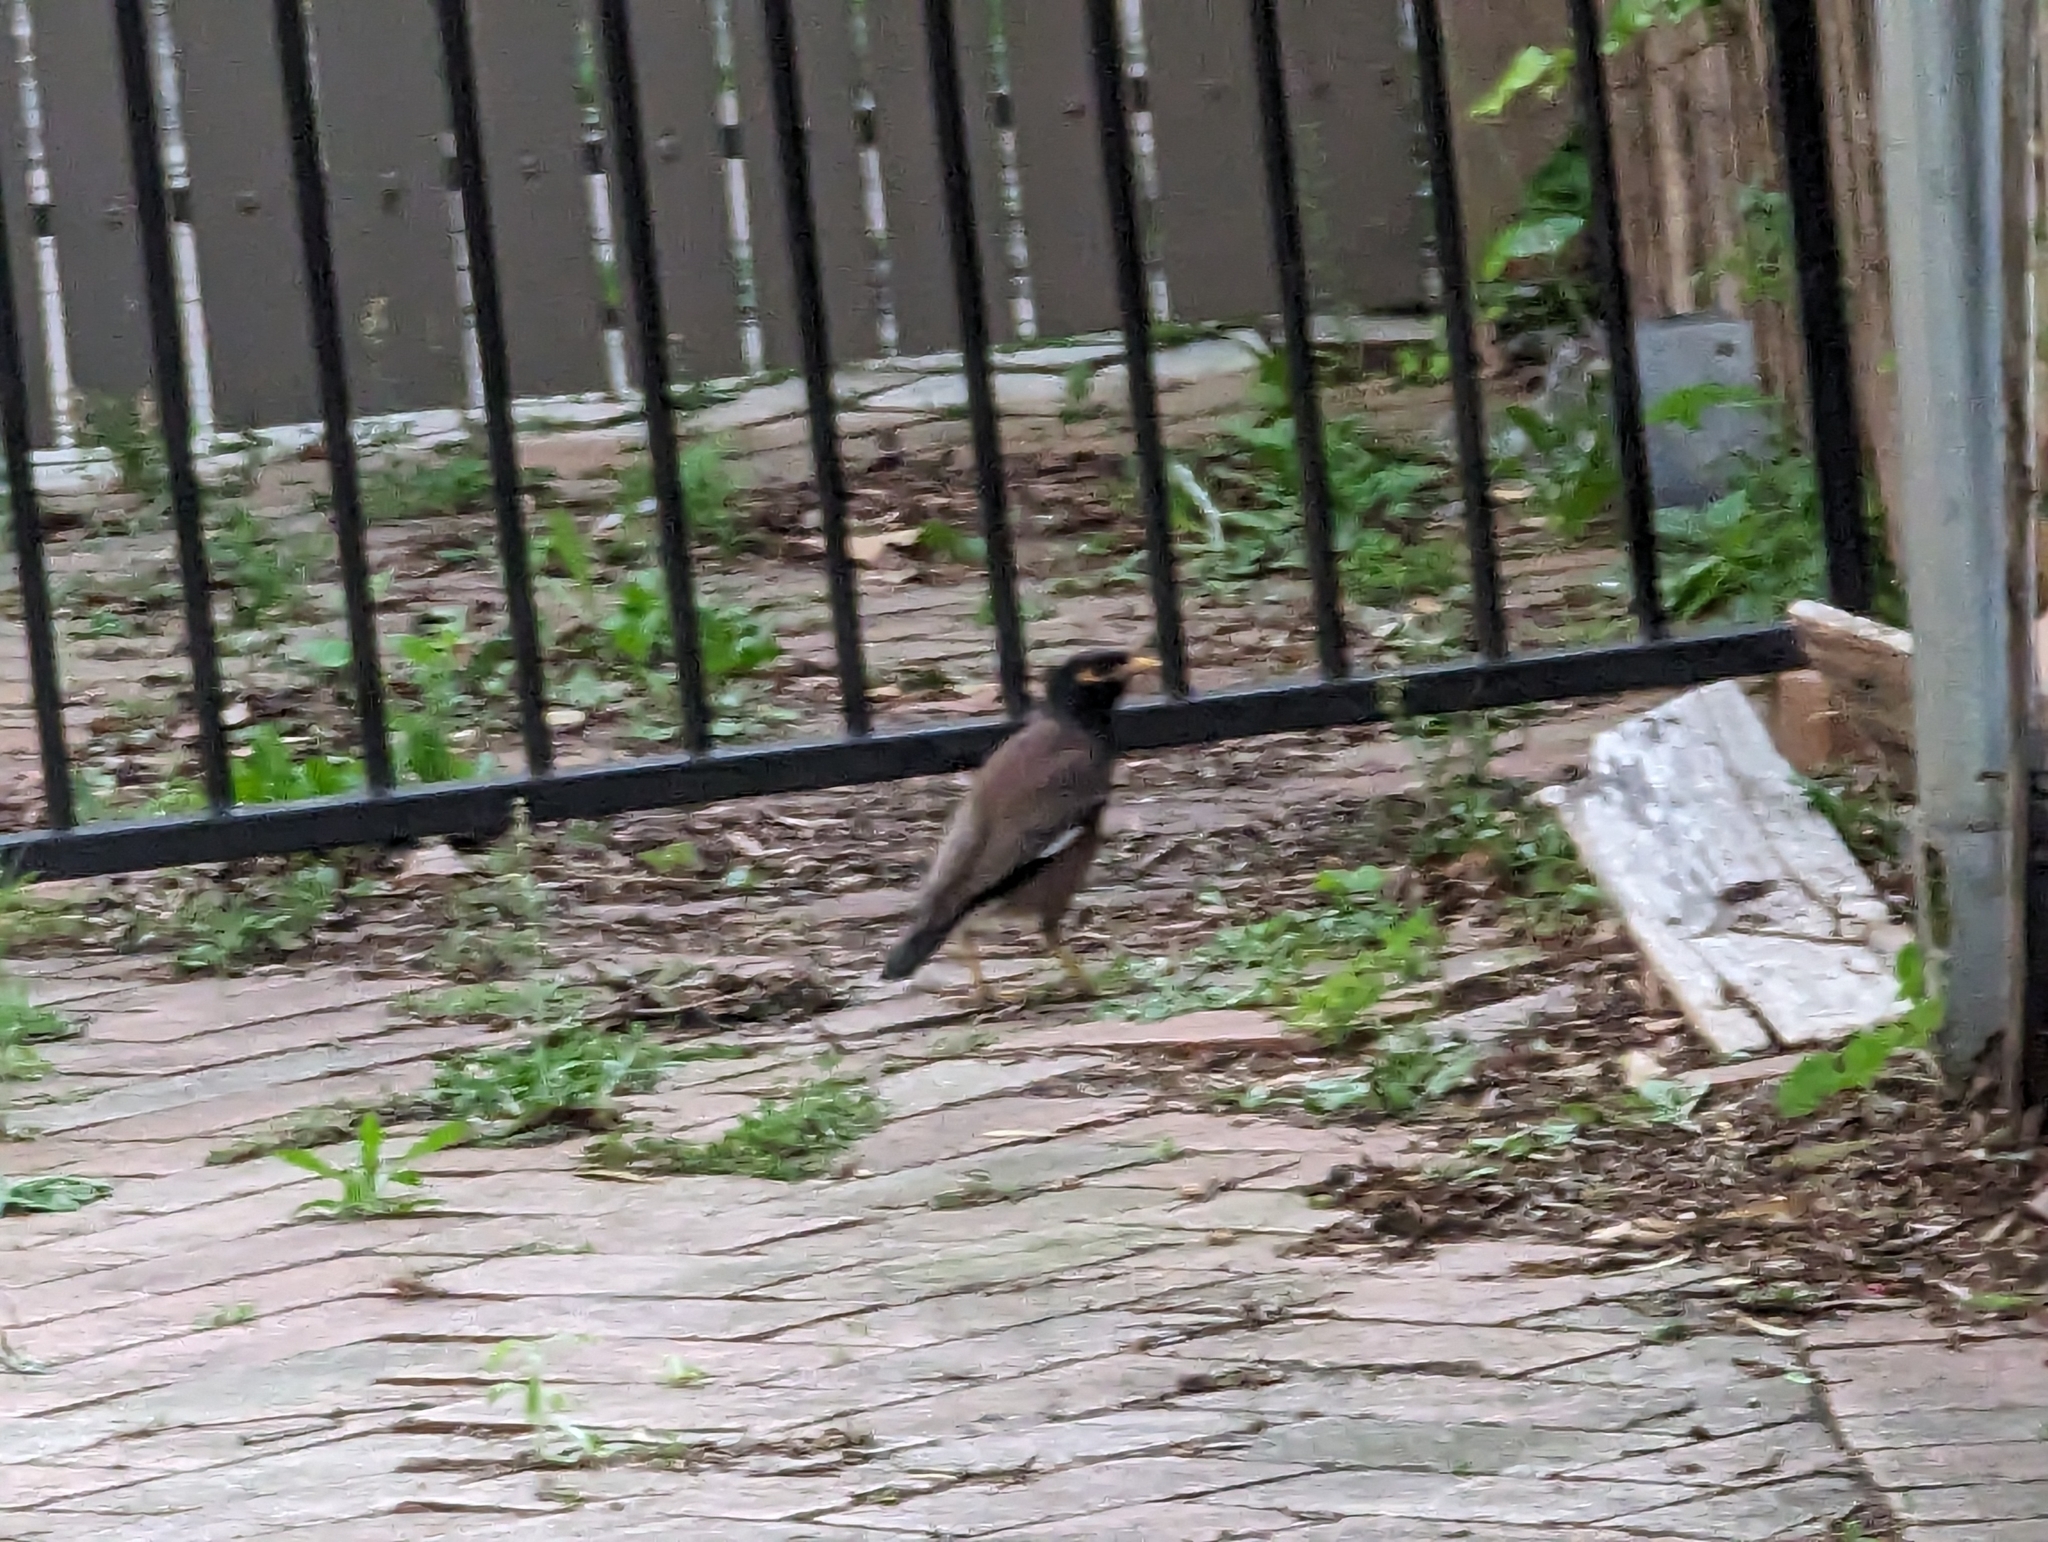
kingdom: Animalia
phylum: Chordata
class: Aves
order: Passeriformes
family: Sturnidae
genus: Acridotheres
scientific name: Acridotheres tristis
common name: Common myna
